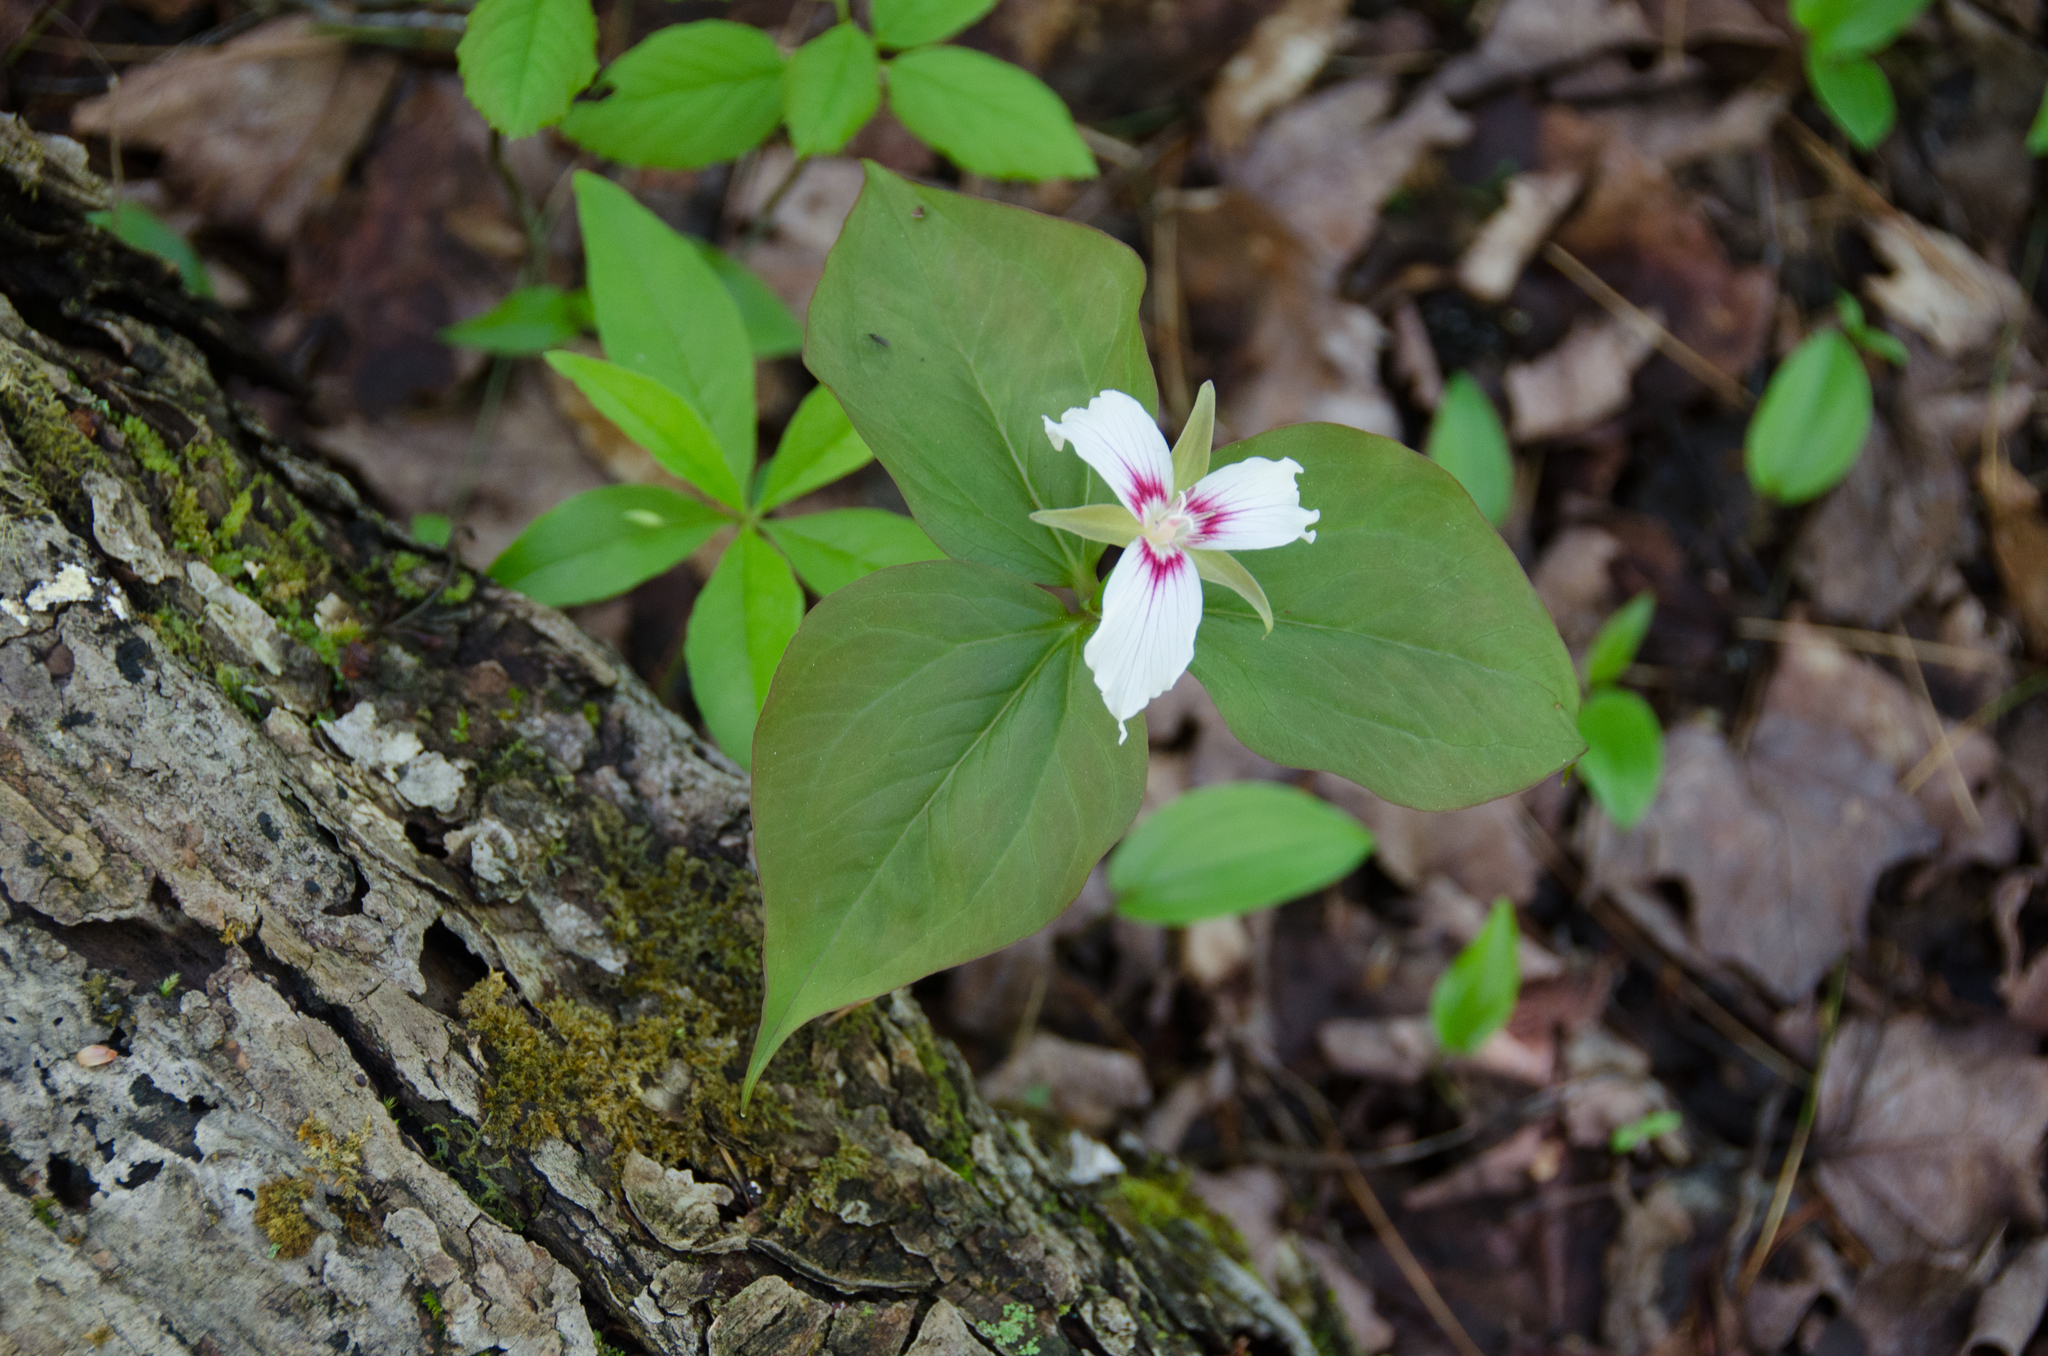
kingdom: Plantae
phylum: Tracheophyta
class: Liliopsida
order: Liliales
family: Melanthiaceae
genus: Trillium
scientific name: Trillium undulatum
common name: Paint trillium
